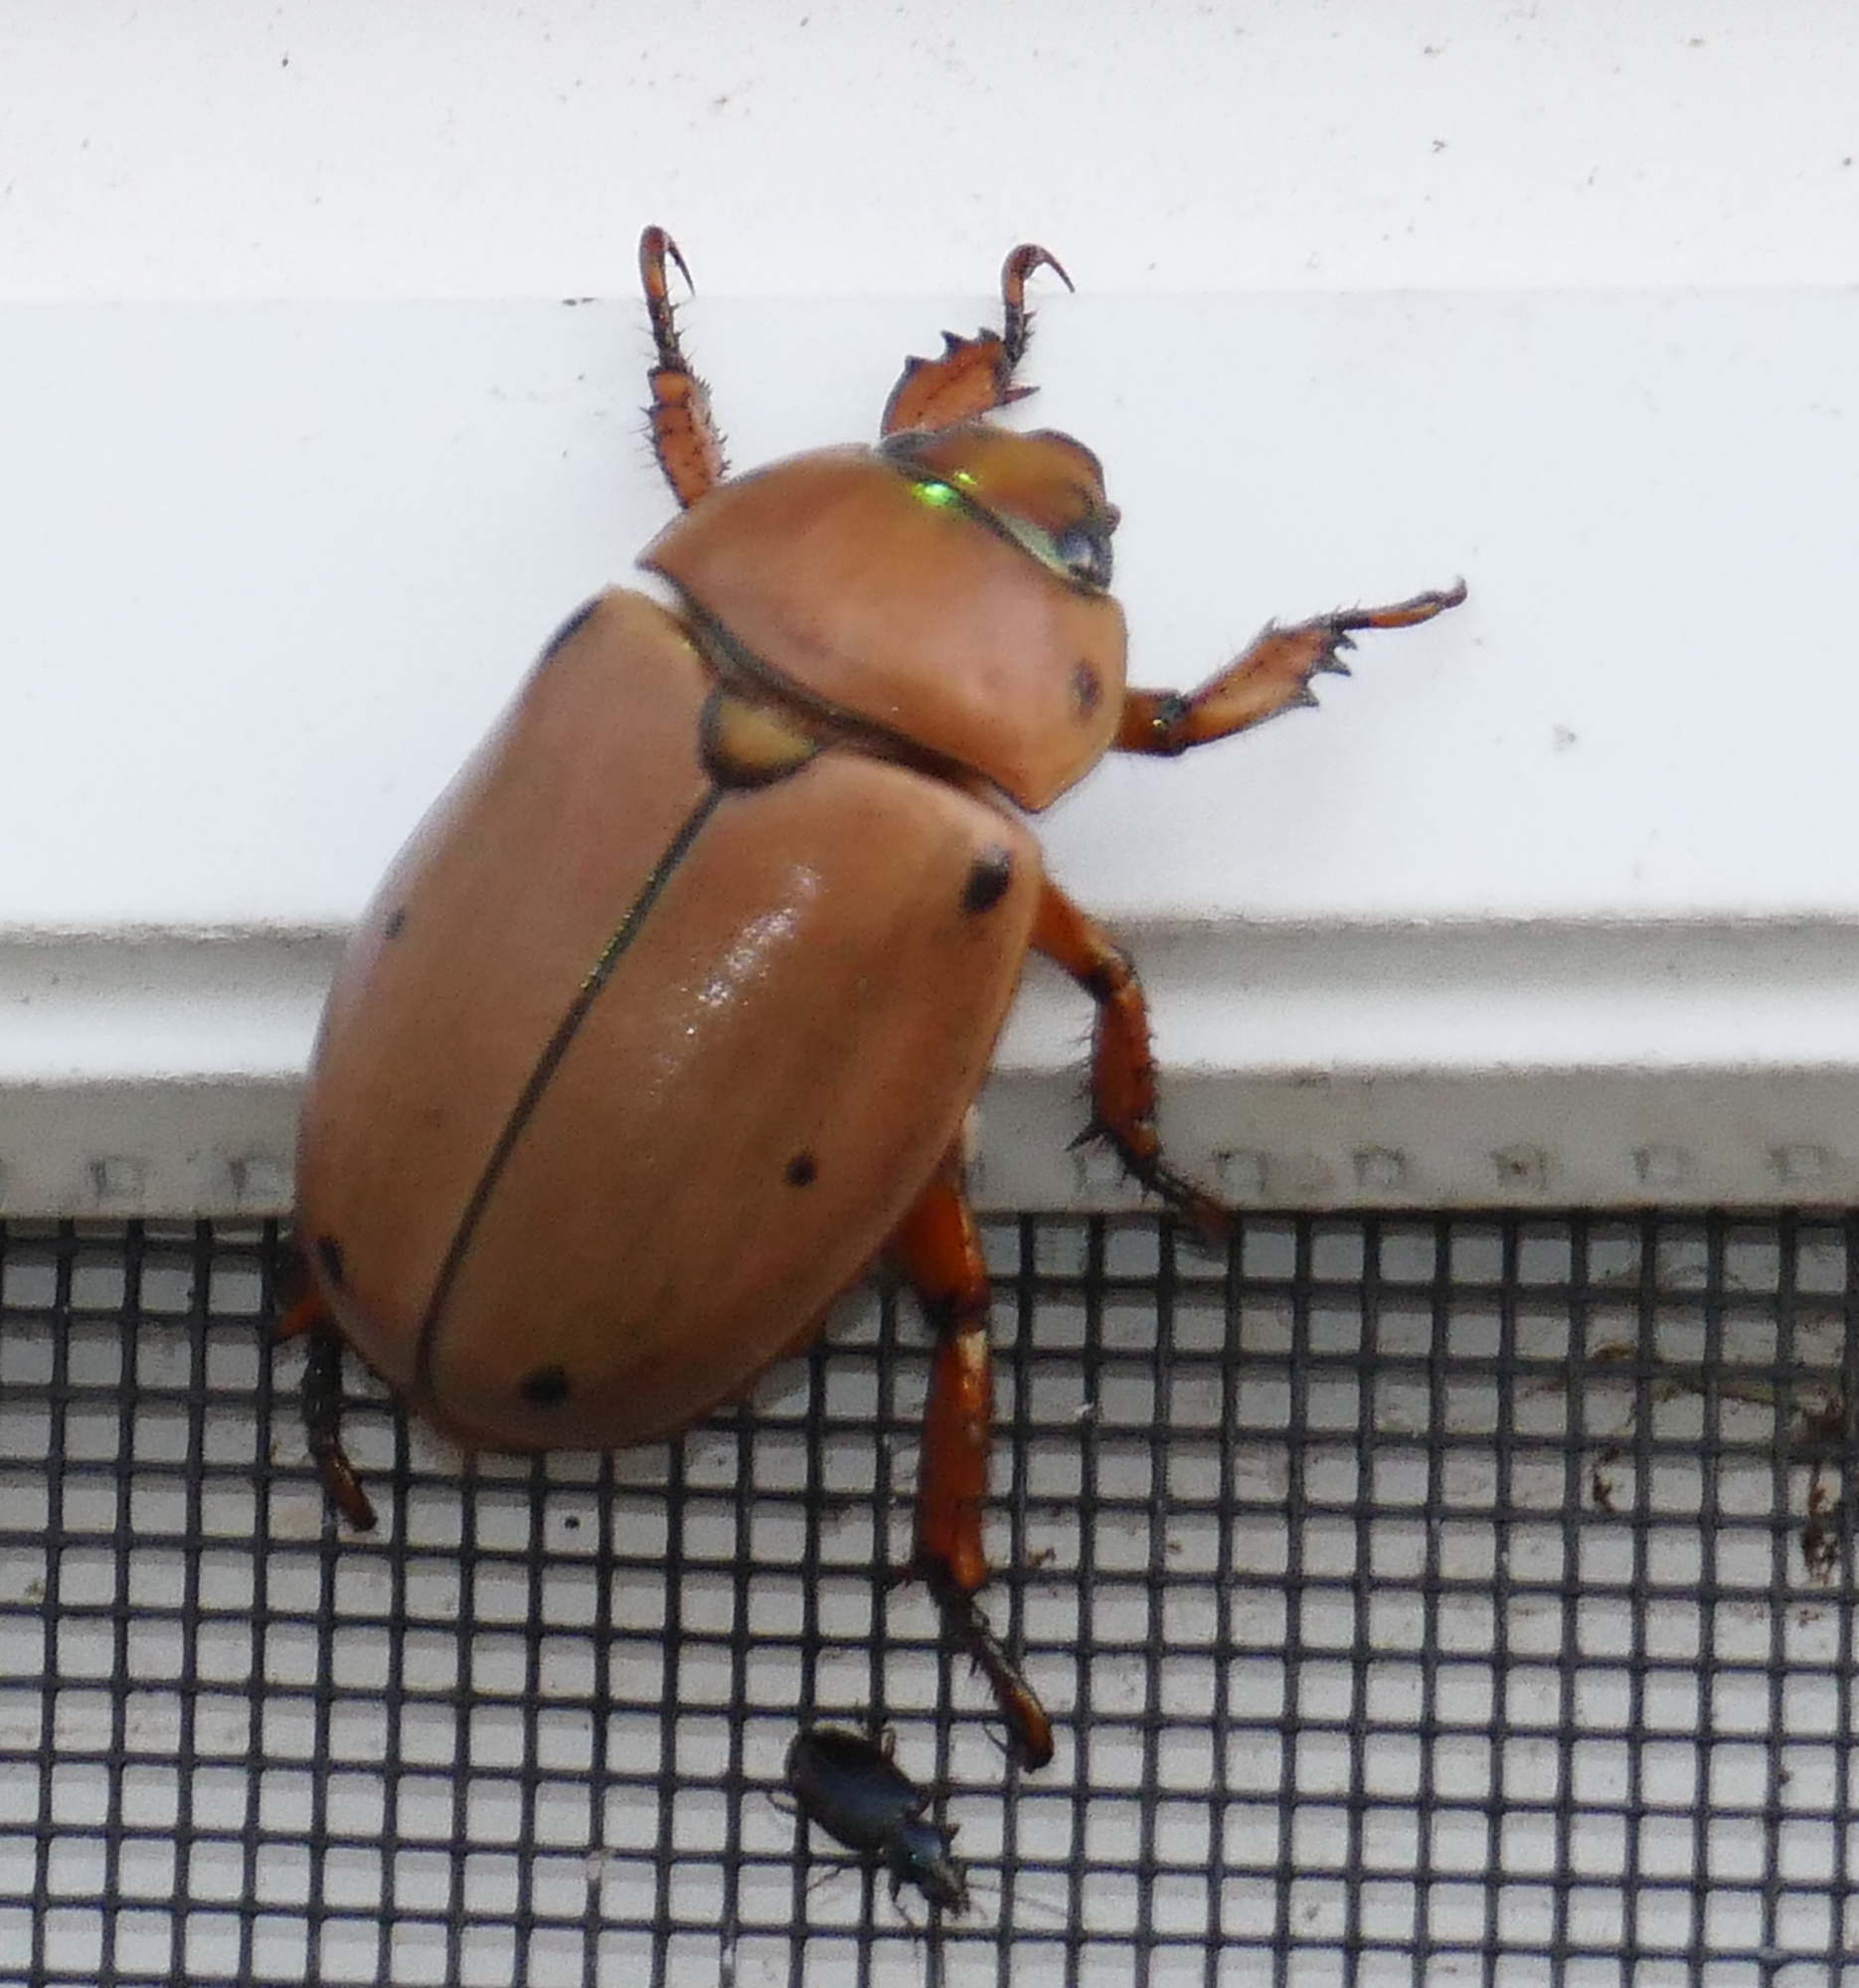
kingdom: Animalia
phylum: Arthropoda
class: Insecta
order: Coleoptera
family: Scarabaeidae
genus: Pelidnota
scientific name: Pelidnota punctata
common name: Grapevine beetle
